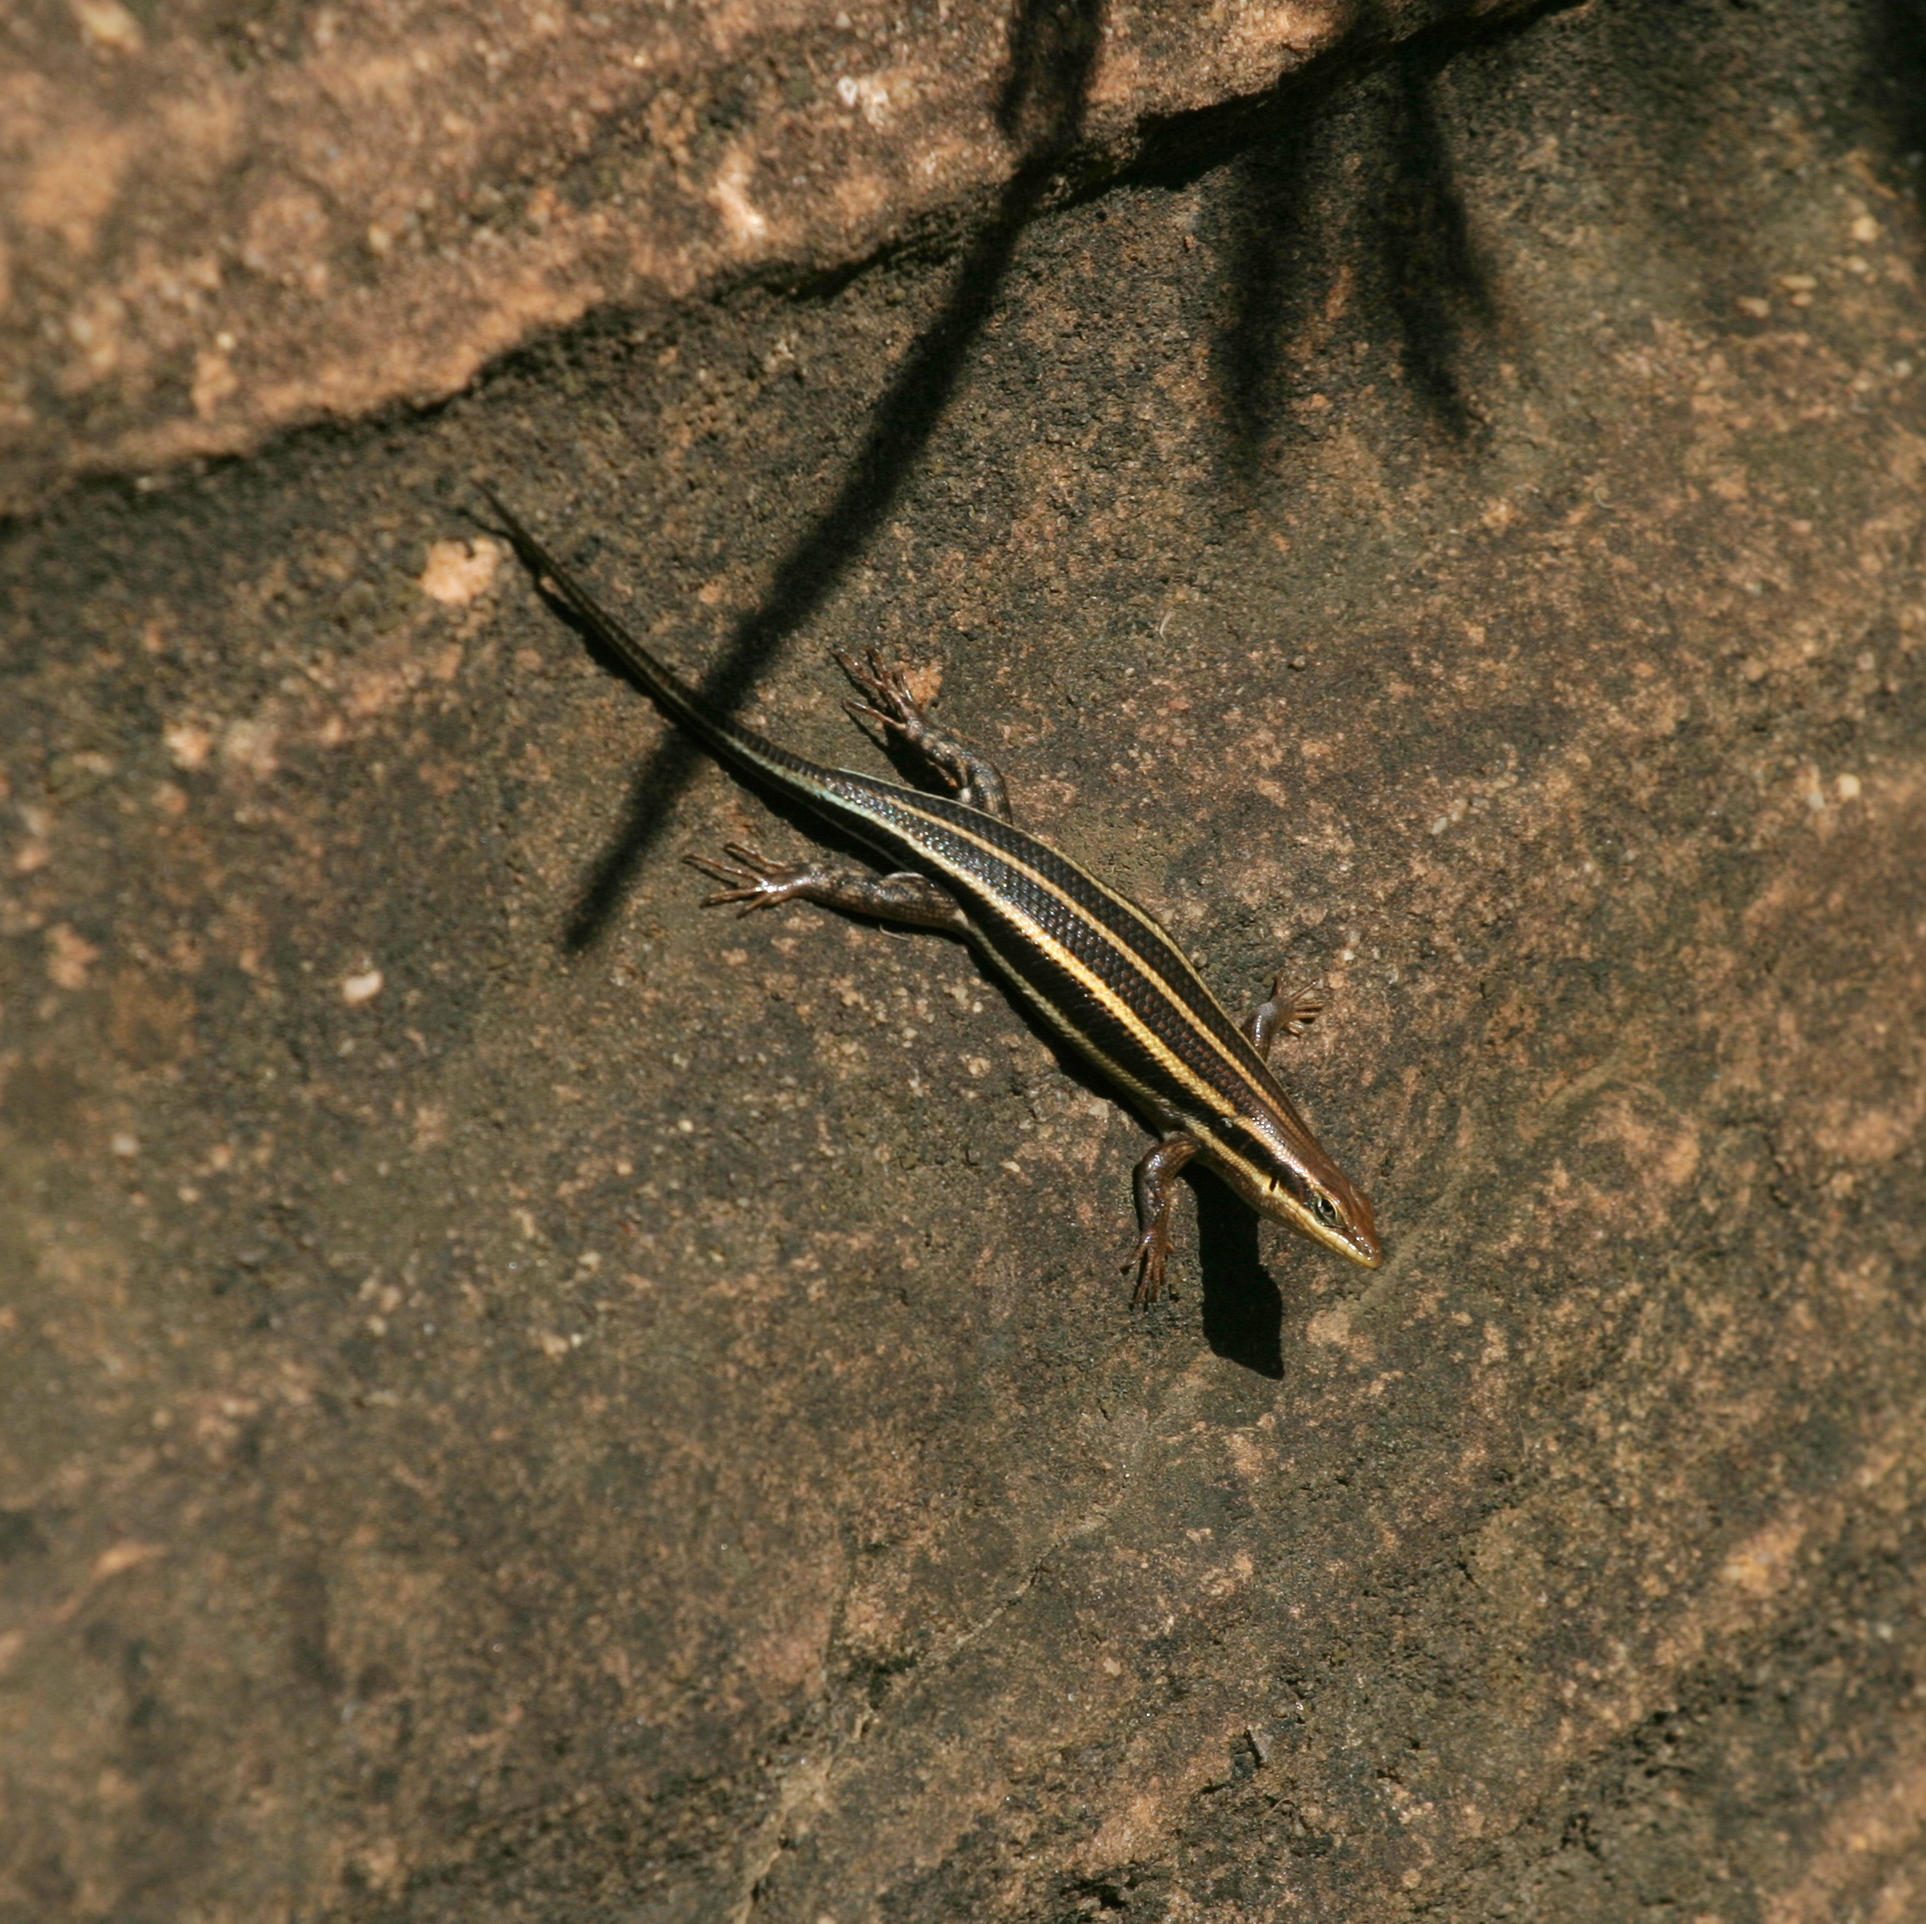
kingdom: Animalia
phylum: Chordata
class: Squamata
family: Scincidae
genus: Trachylepis
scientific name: Trachylepis quinquetaeniata
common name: African five-lined skink
